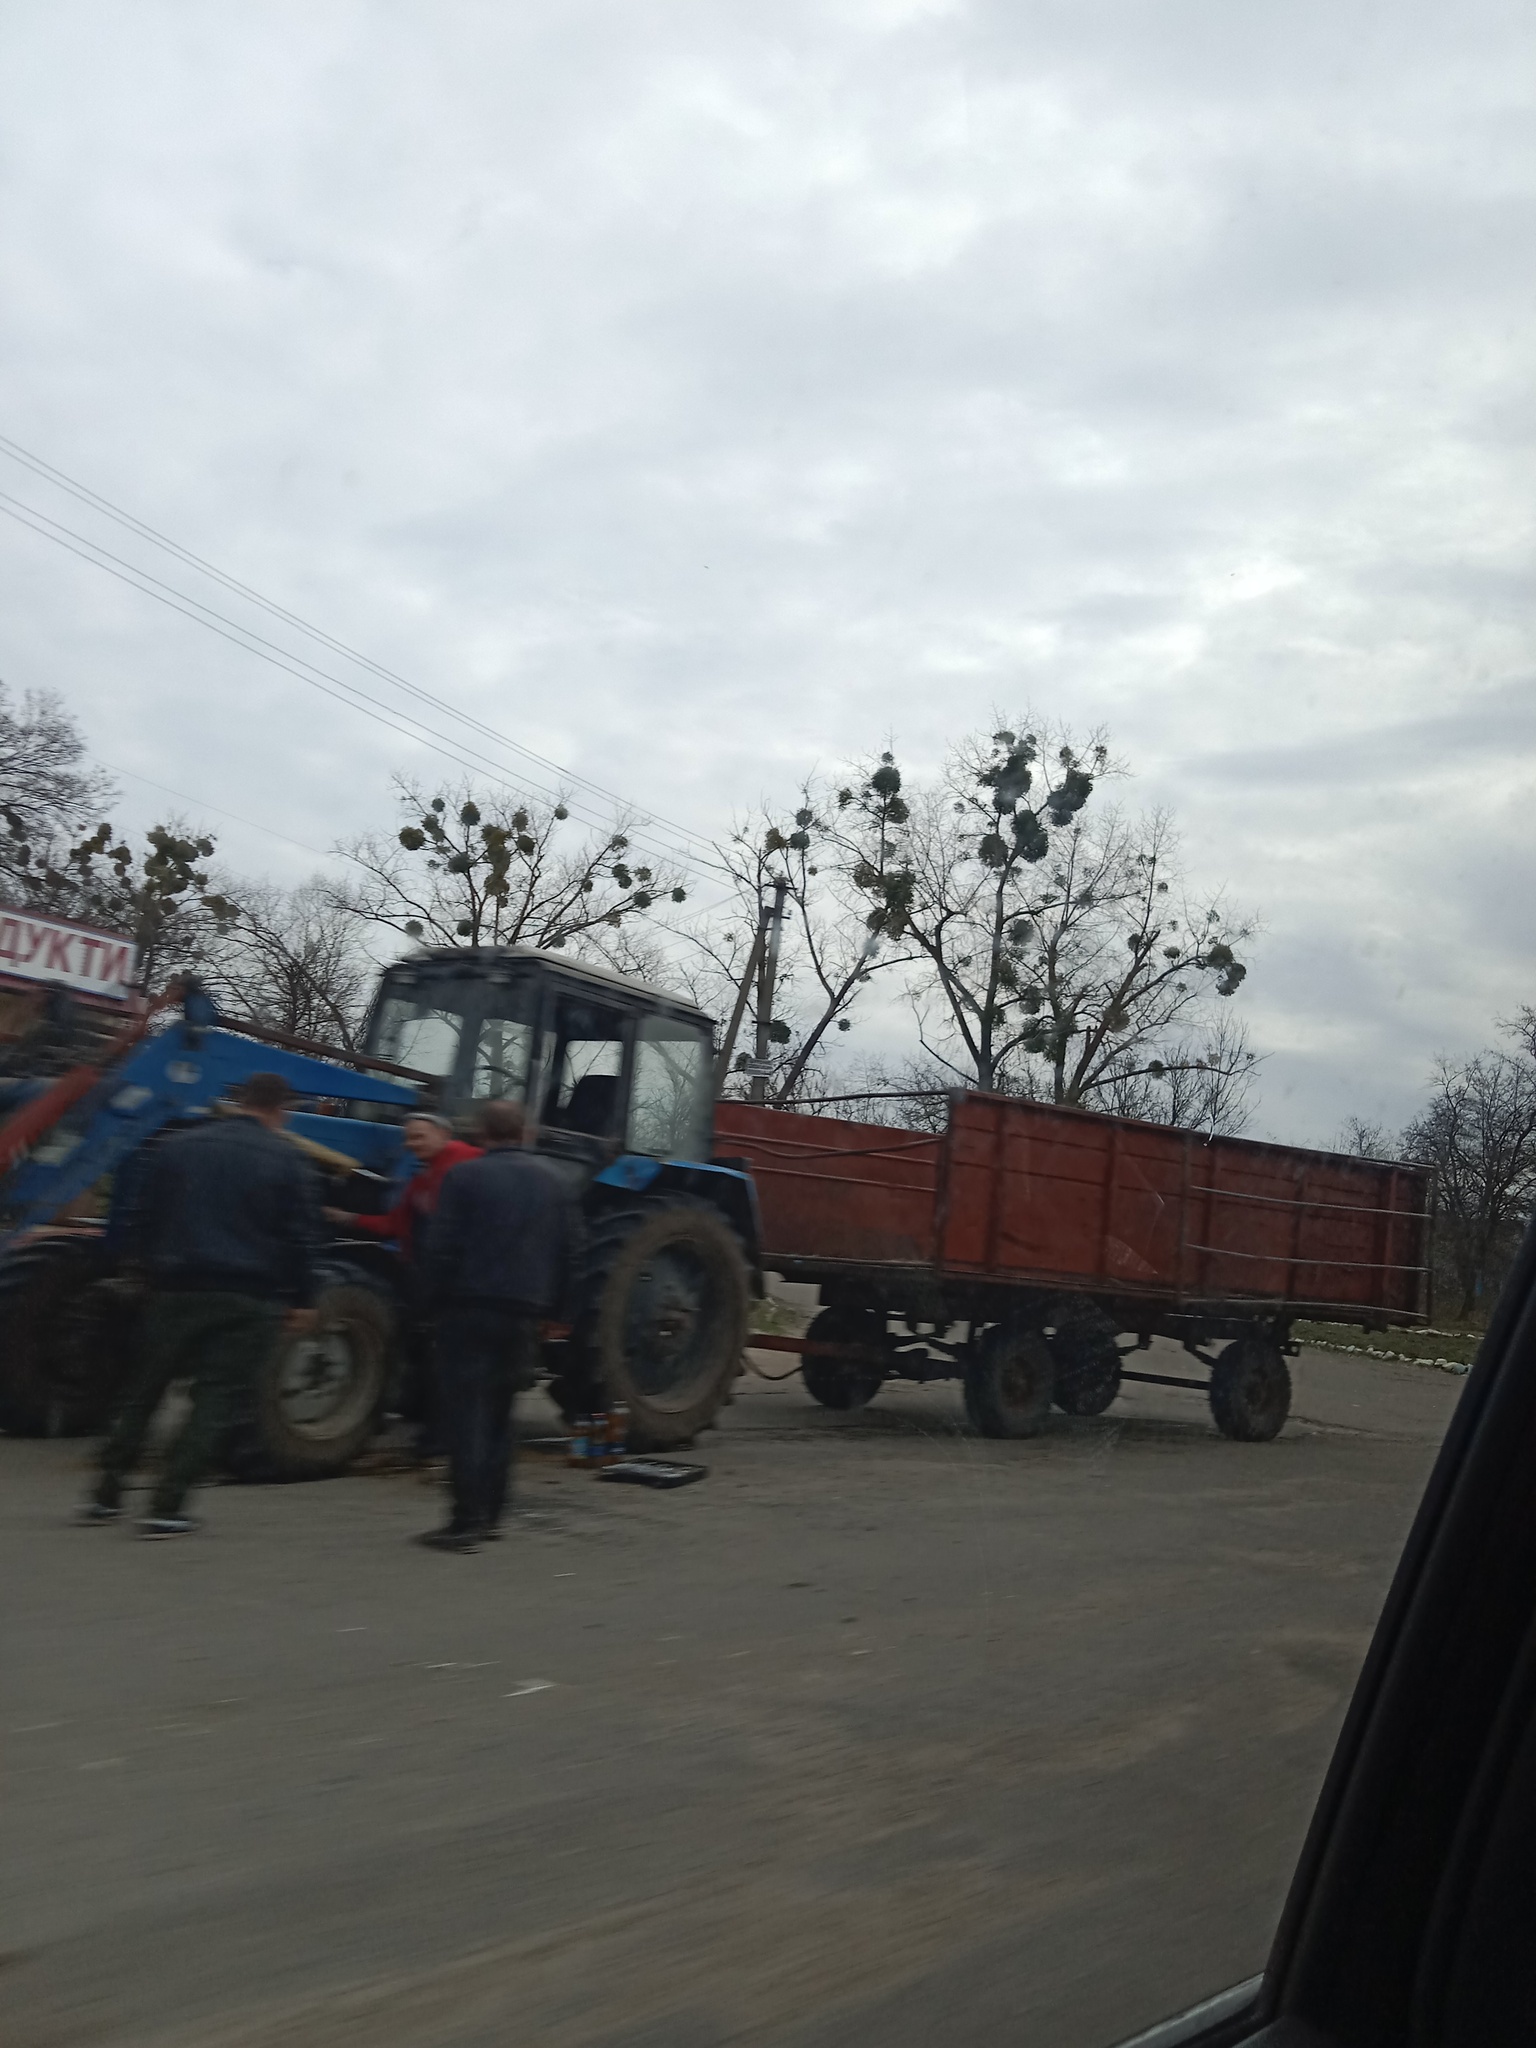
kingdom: Plantae
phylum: Tracheophyta
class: Magnoliopsida
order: Santalales
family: Viscaceae
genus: Viscum
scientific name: Viscum album
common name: Mistletoe
